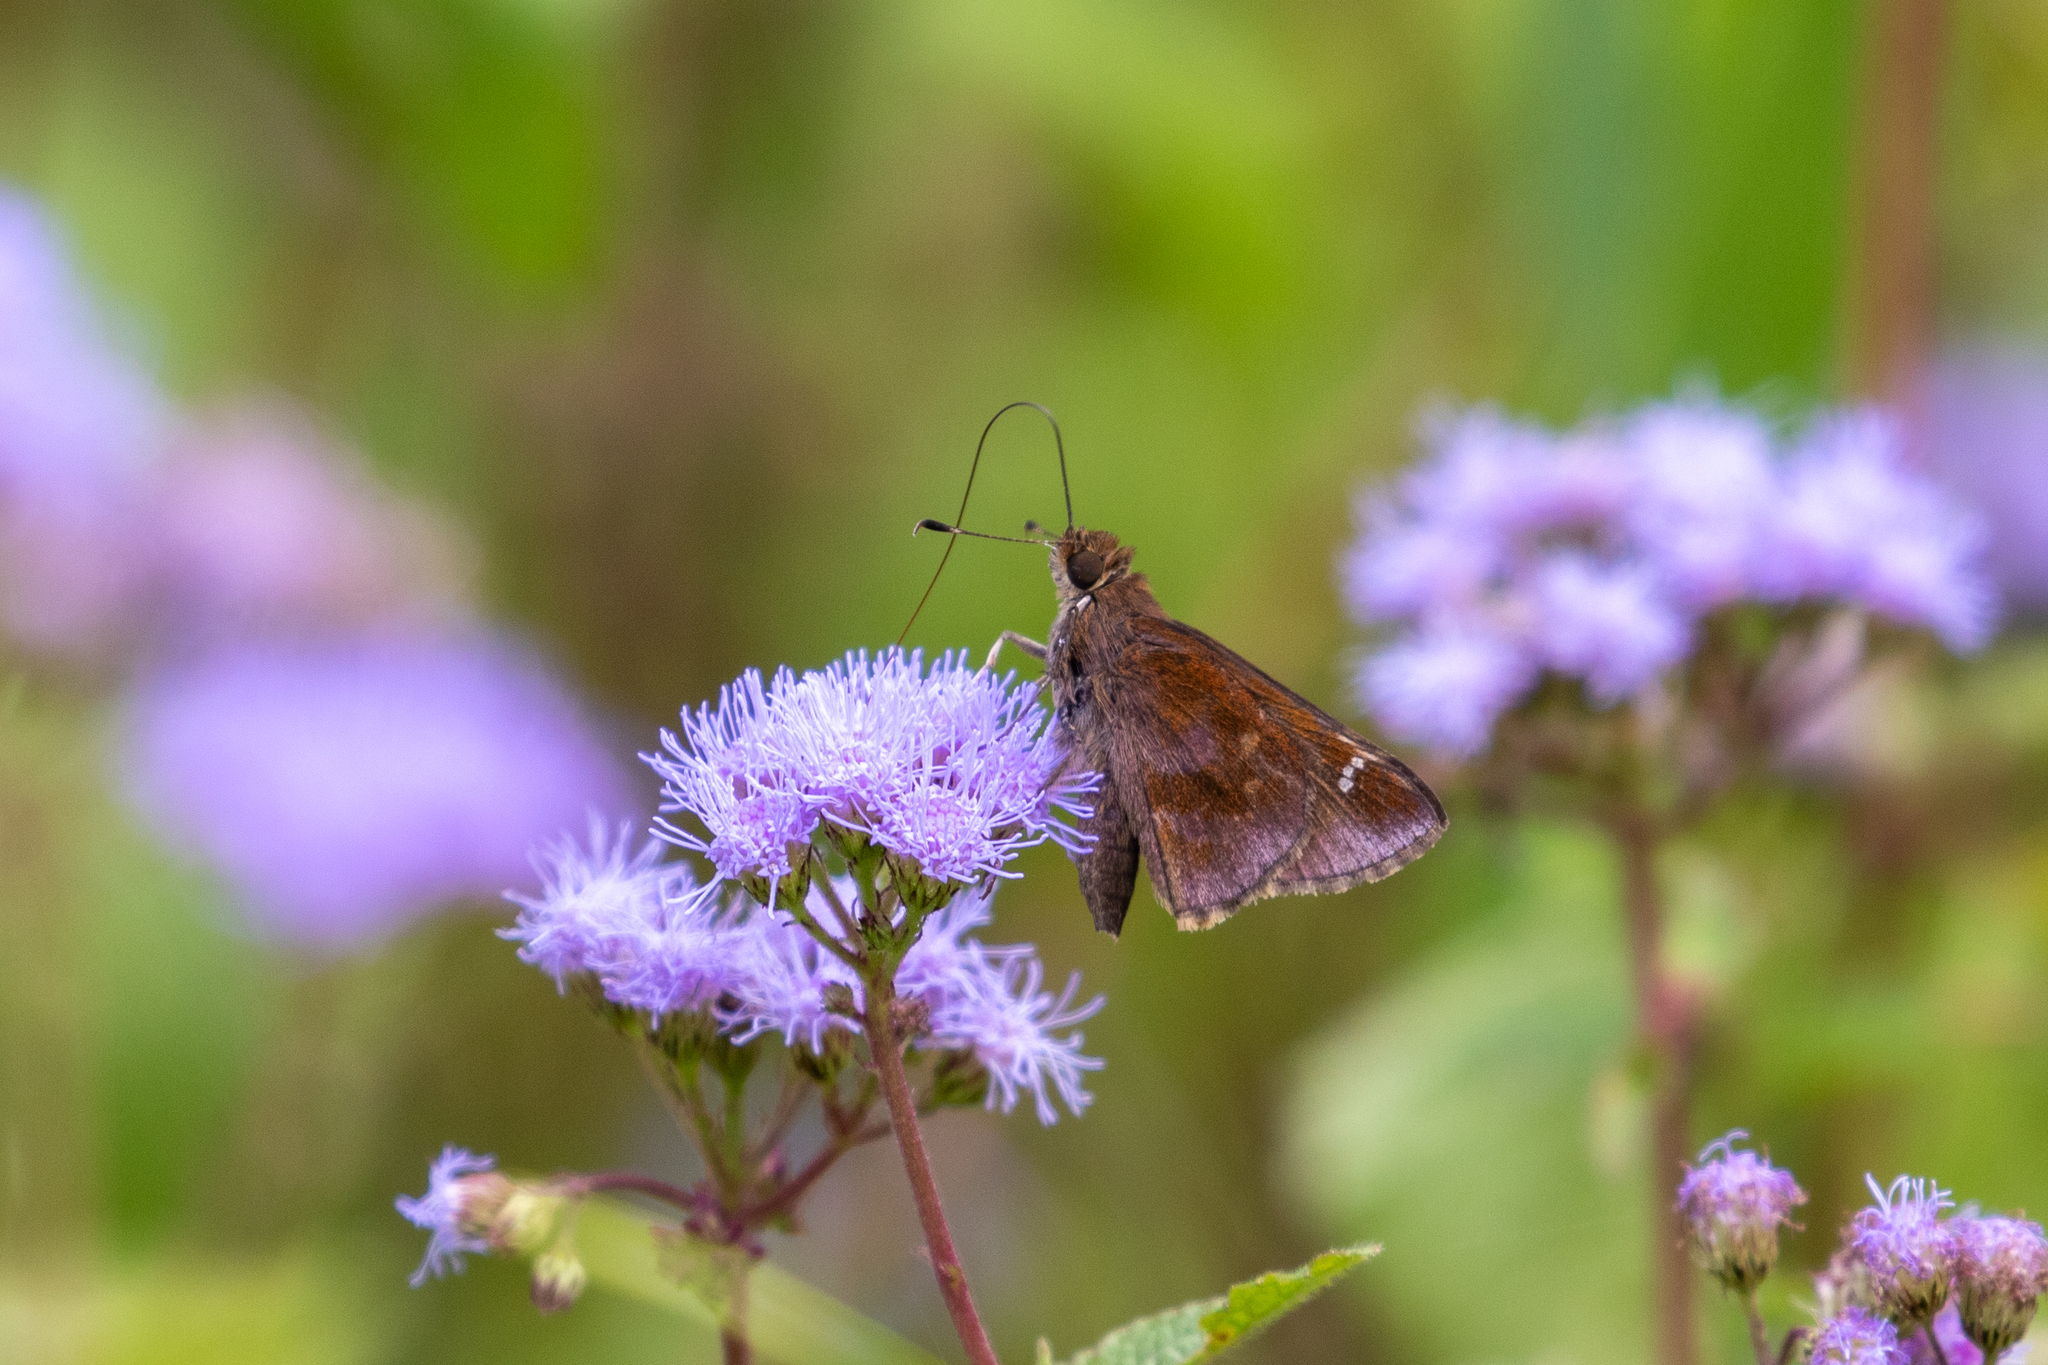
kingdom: Animalia
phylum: Arthropoda
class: Insecta
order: Lepidoptera
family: Hesperiidae
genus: Lerema
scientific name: Lerema accius
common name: Clouded skipper
